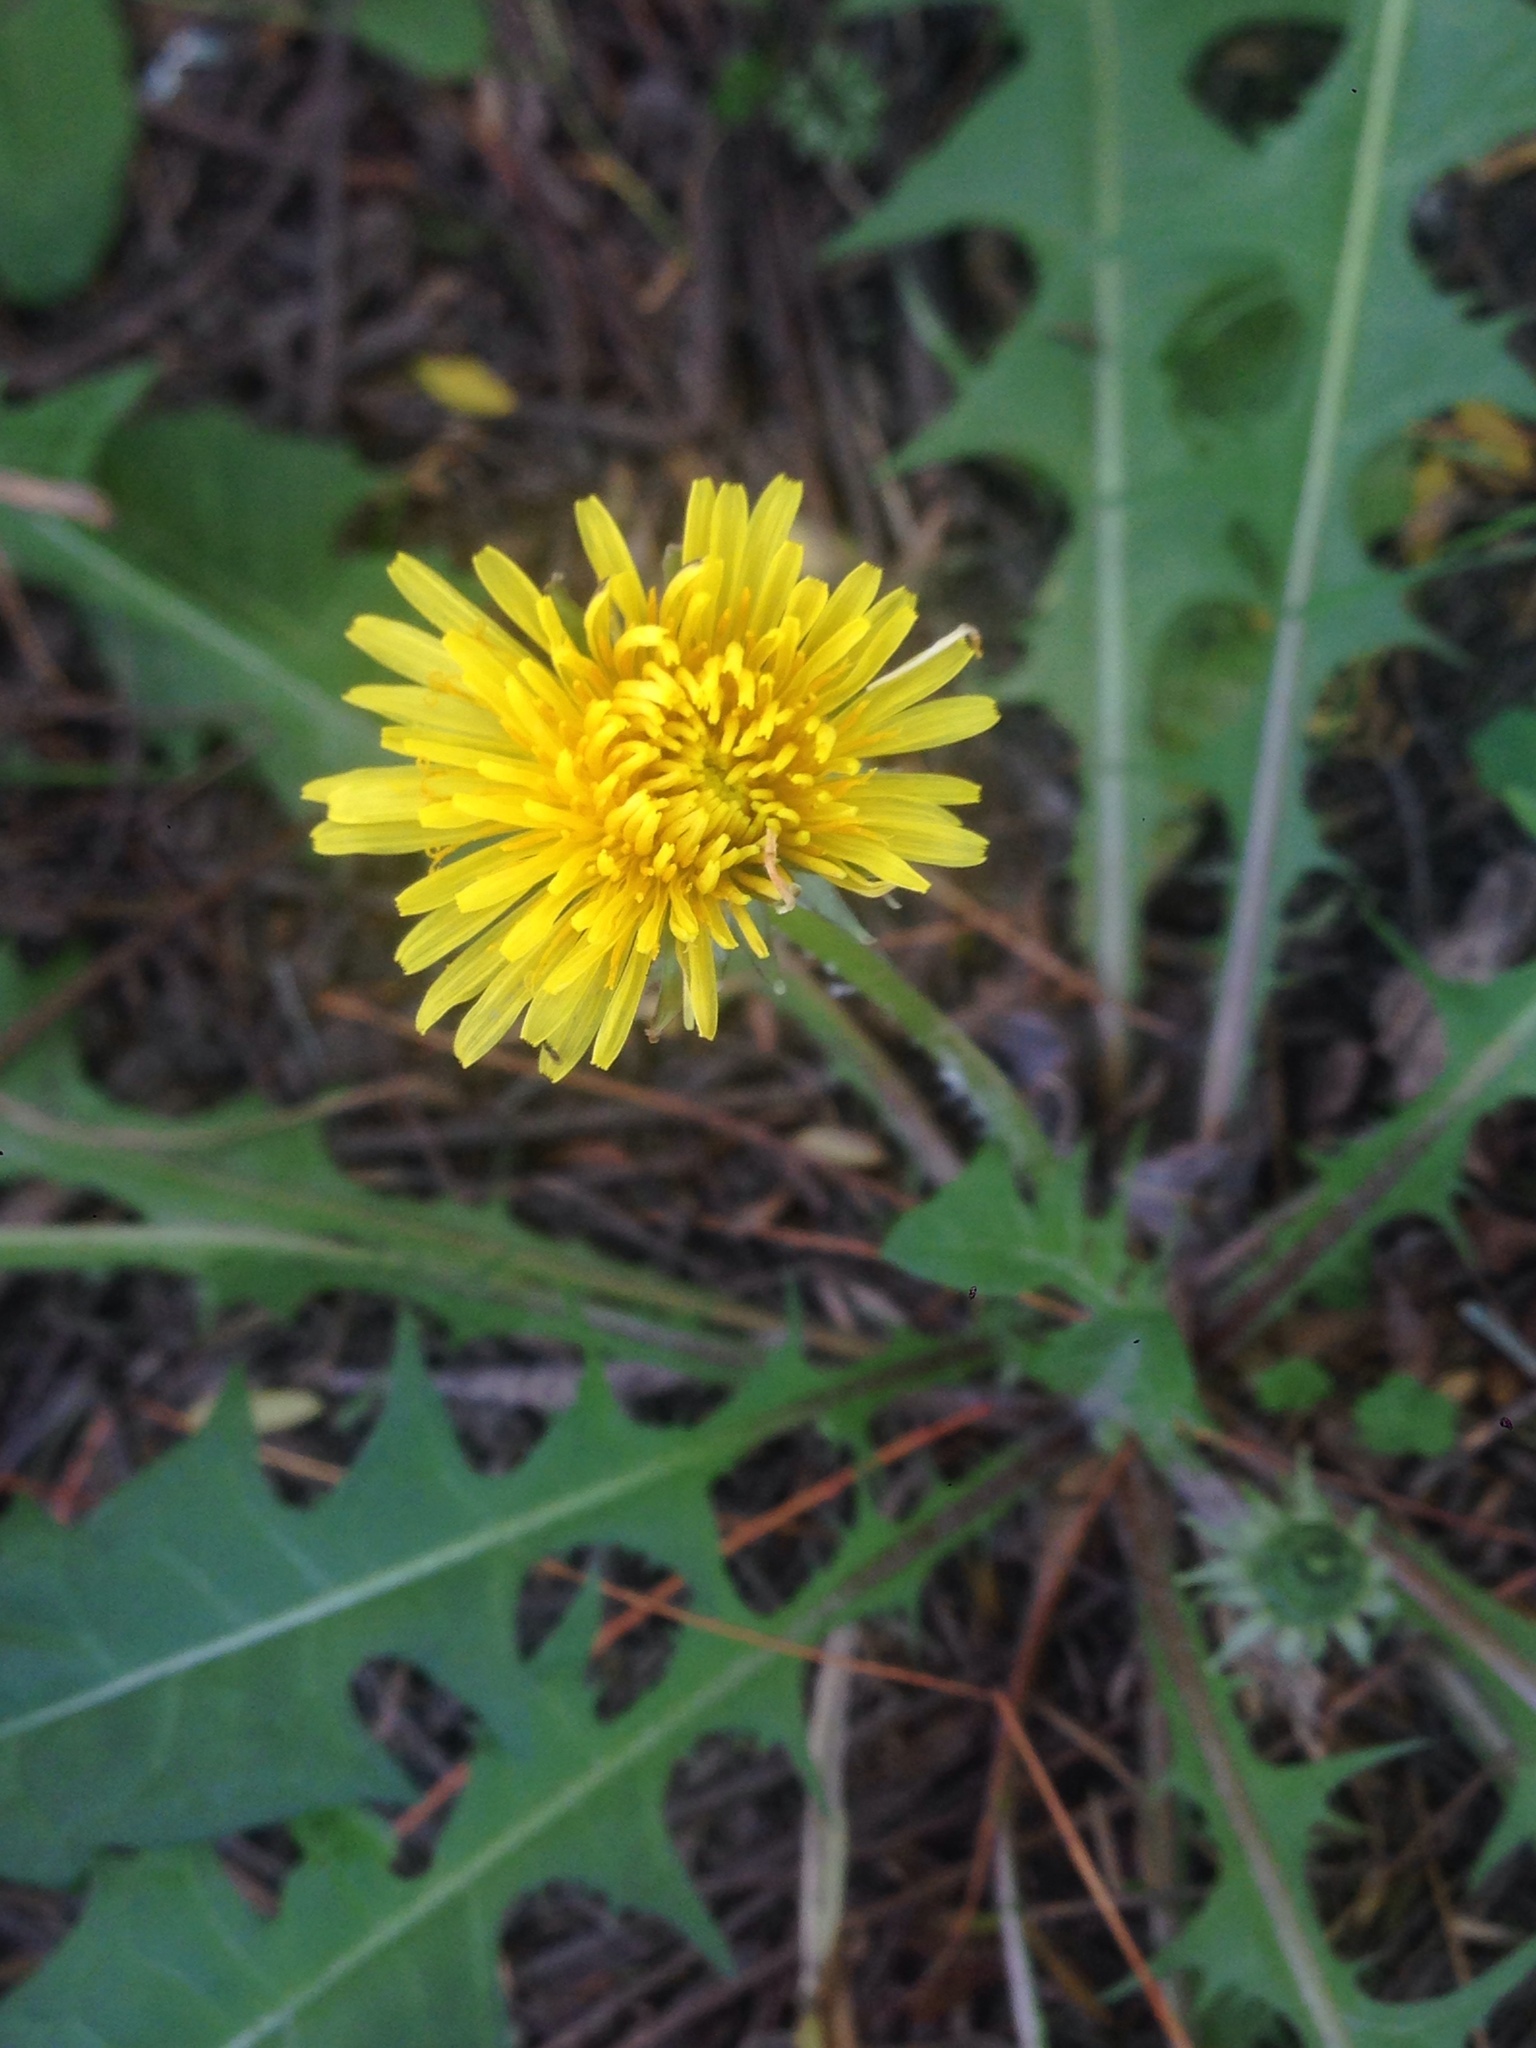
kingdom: Plantae
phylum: Tracheophyta
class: Magnoliopsida
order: Asterales
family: Asteraceae
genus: Taraxacum
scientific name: Taraxacum officinale
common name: Common dandelion
